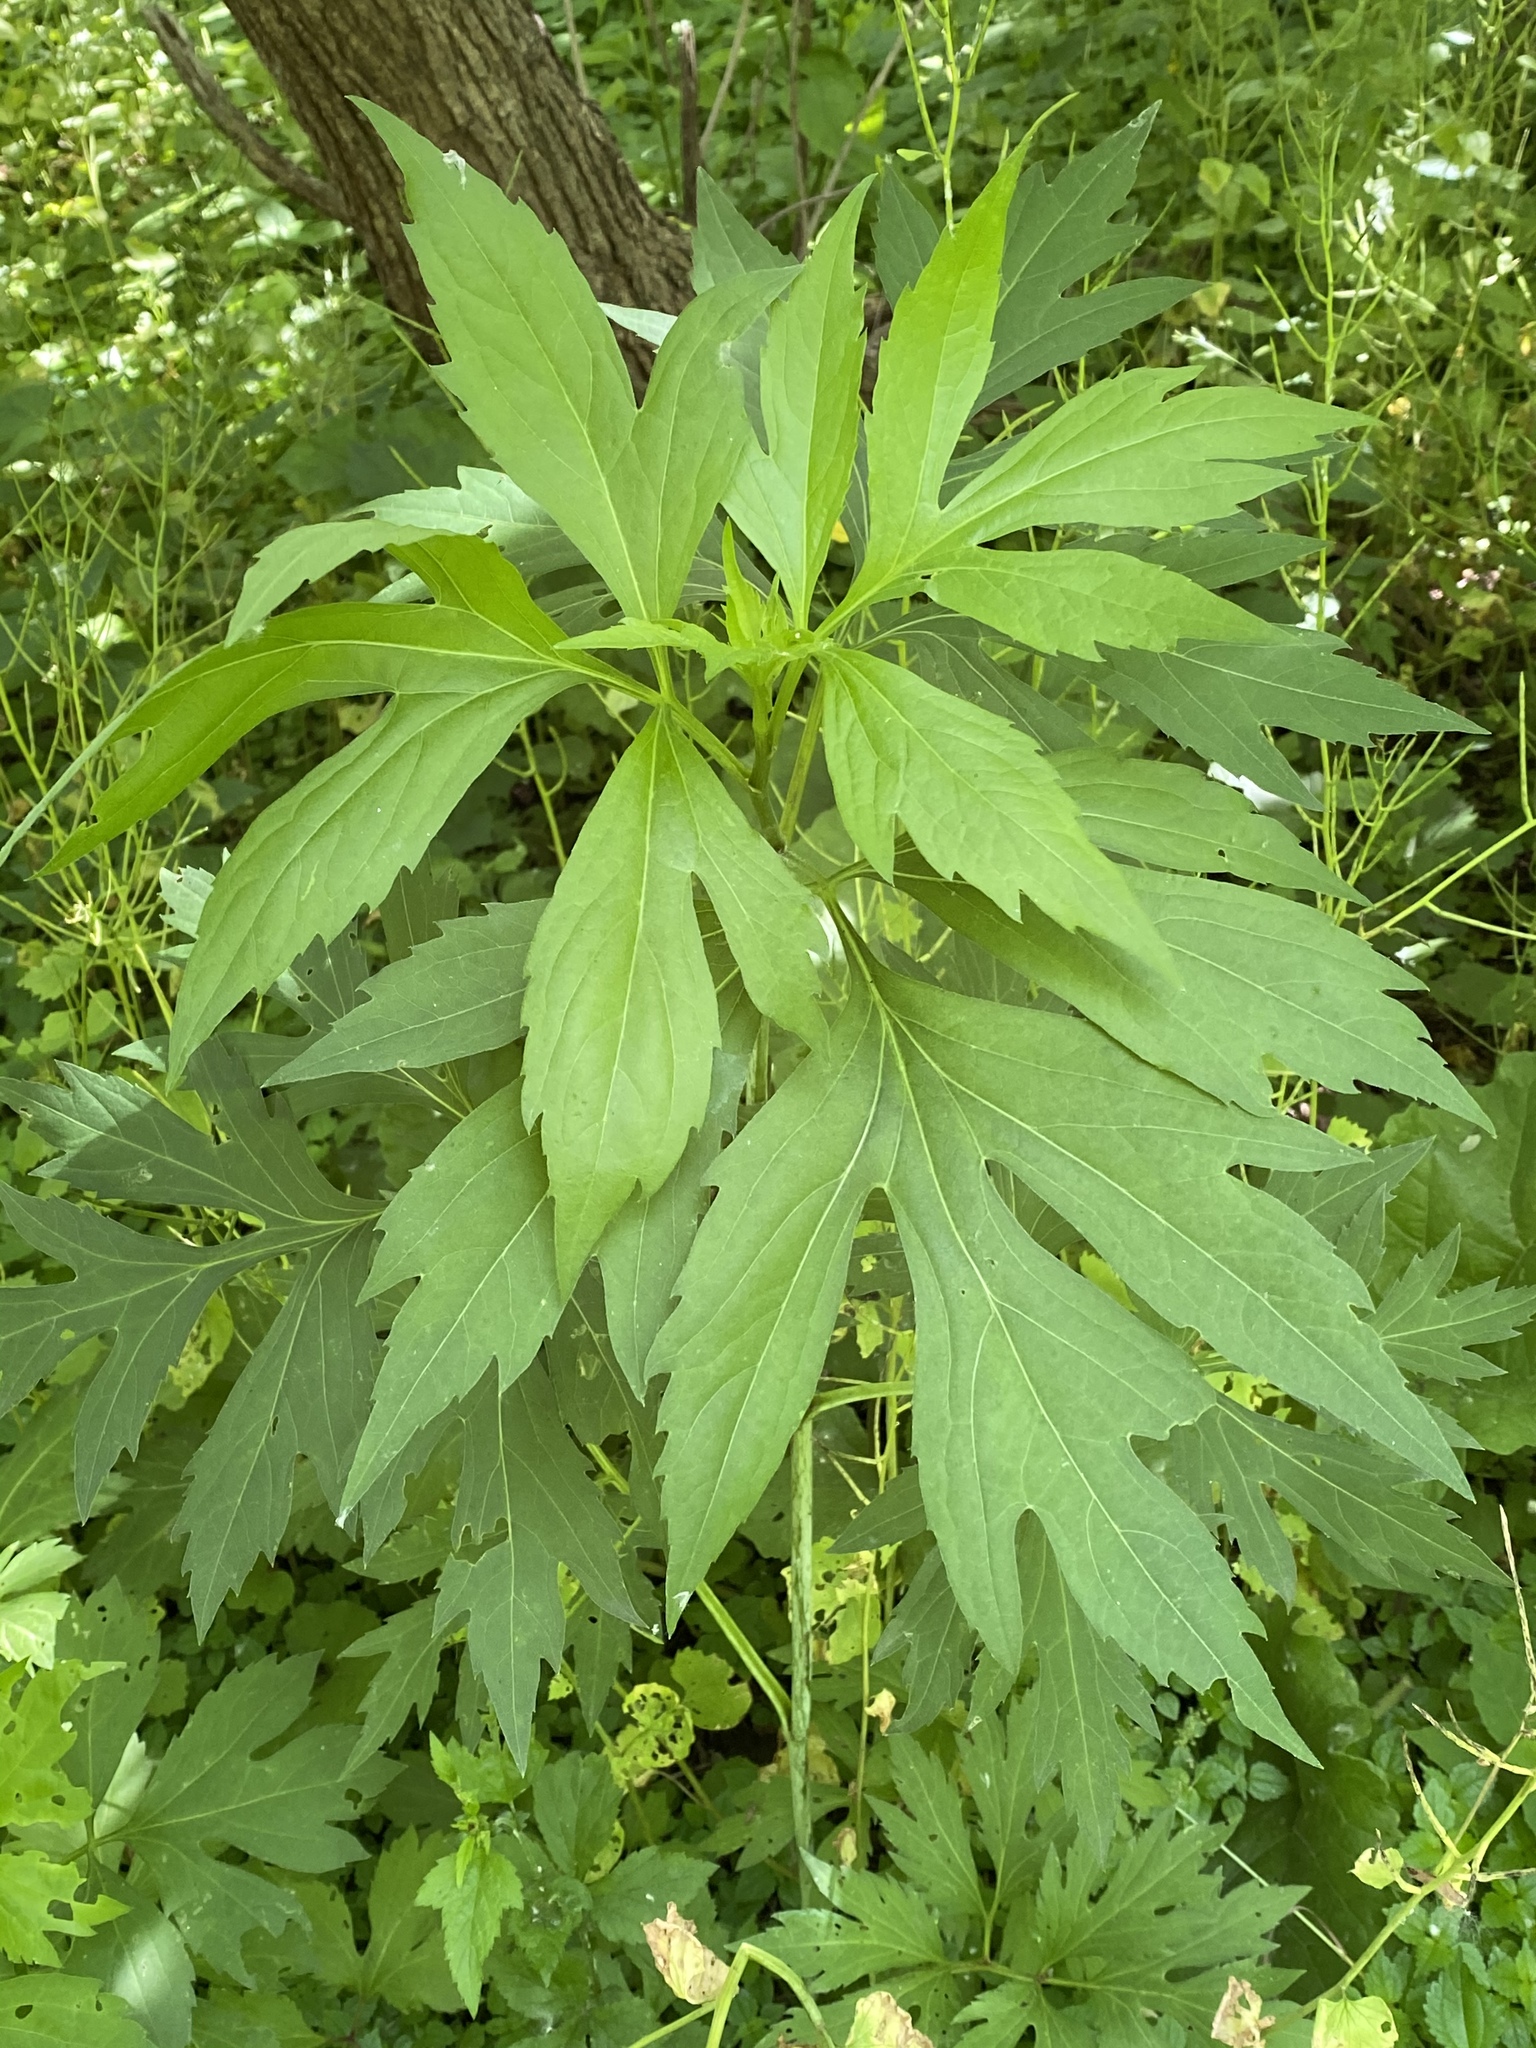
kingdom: Plantae
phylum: Tracheophyta
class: Magnoliopsida
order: Asterales
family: Asteraceae
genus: Rudbeckia
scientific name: Rudbeckia laciniata
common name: Coneflower
